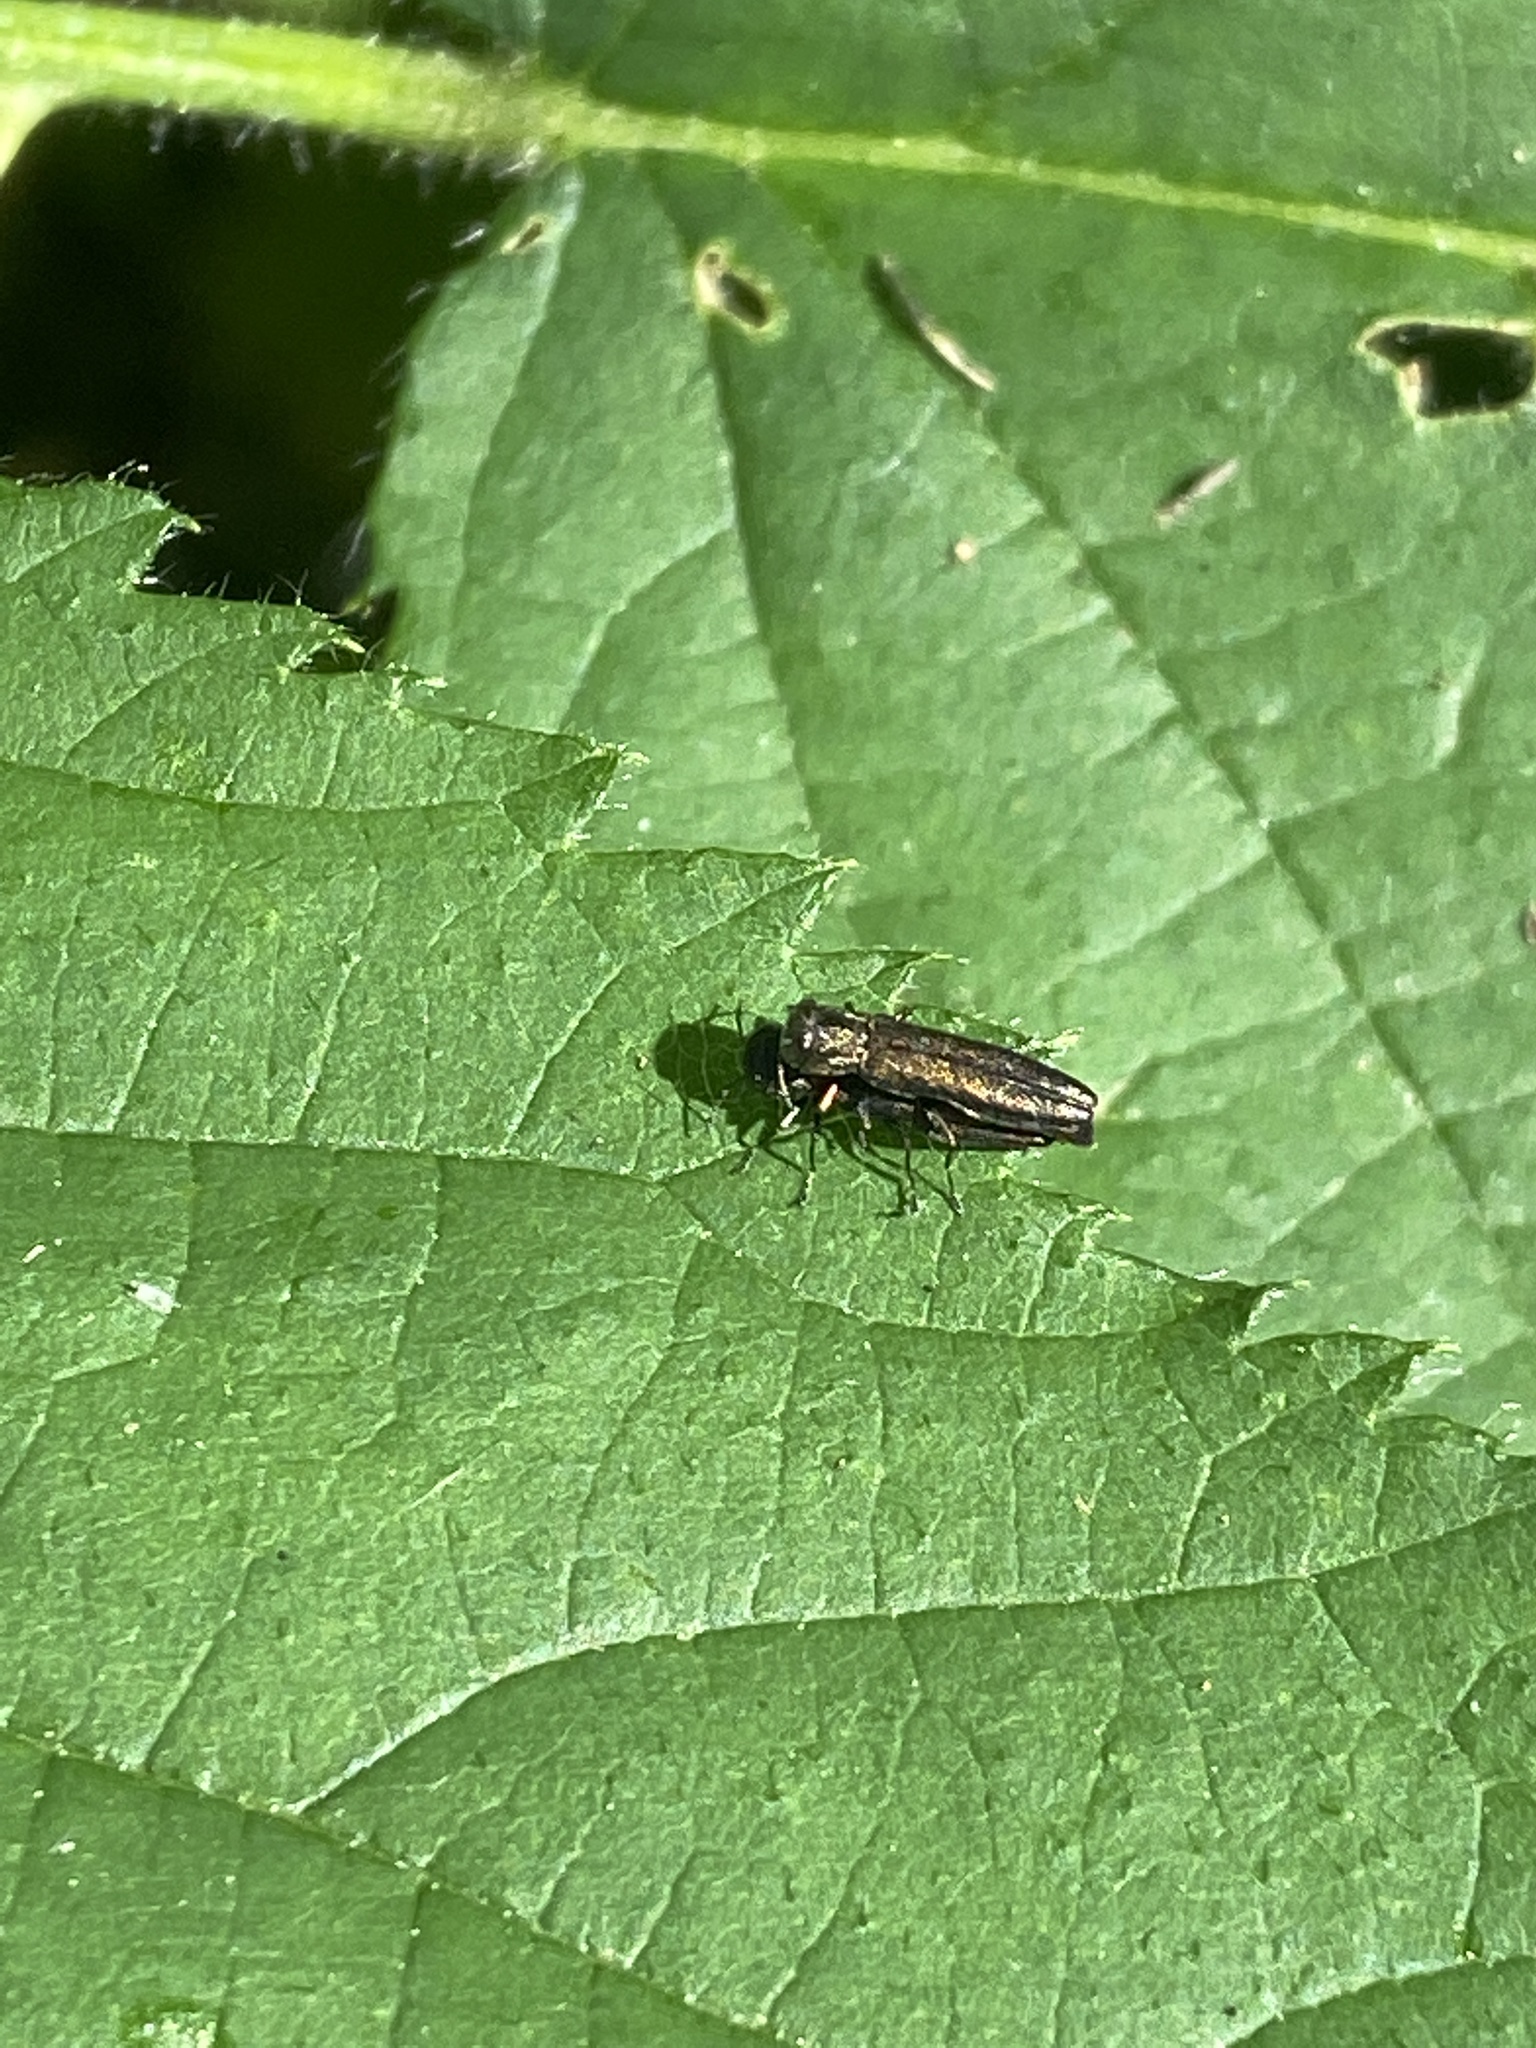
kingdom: Animalia
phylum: Arthropoda
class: Insecta
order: Coleoptera
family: Buprestidae
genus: Agrilus
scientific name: Agrilus
